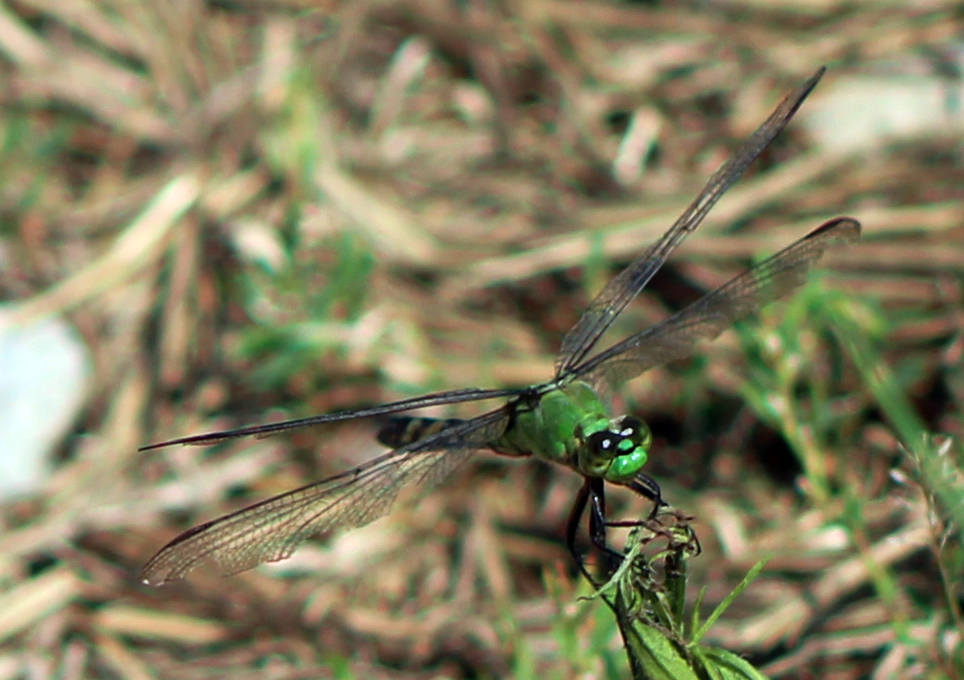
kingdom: Animalia
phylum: Arthropoda
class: Insecta
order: Odonata
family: Libellulidae
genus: Erythemis
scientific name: Erythemis simplicicollis
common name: Eastern pondhawk
